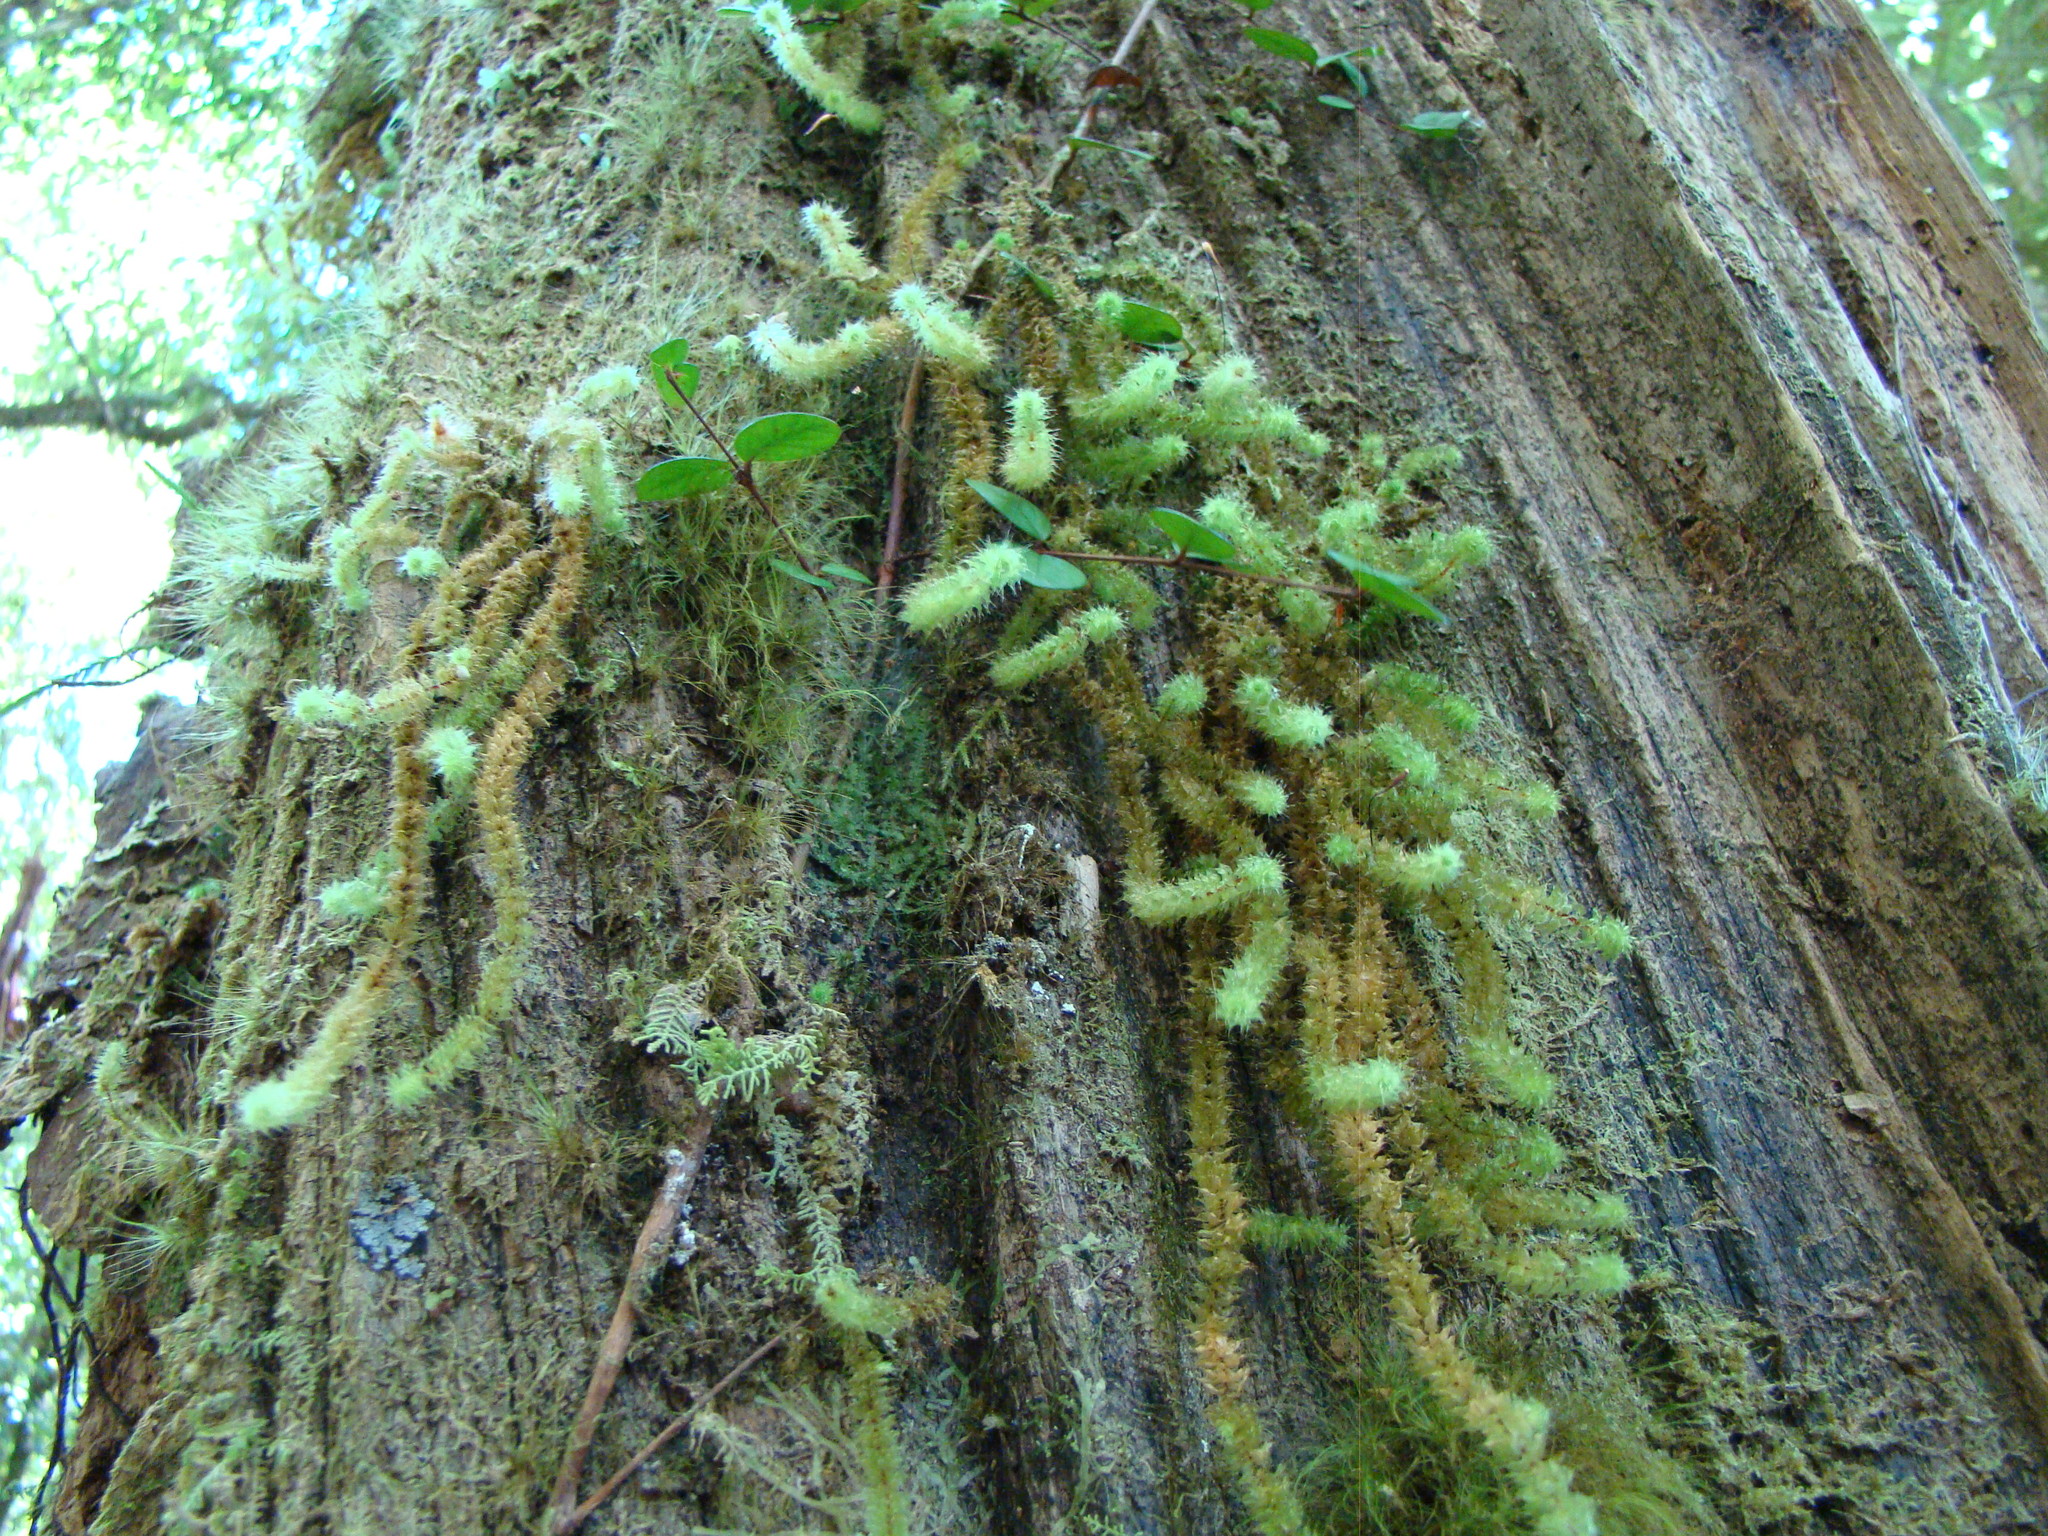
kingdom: Plantae
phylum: Bryophyta
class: Bryopsida
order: Ptychomniales
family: Ptychomniaceae
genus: Ptychomnion
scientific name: Ptychomnion aciculare
